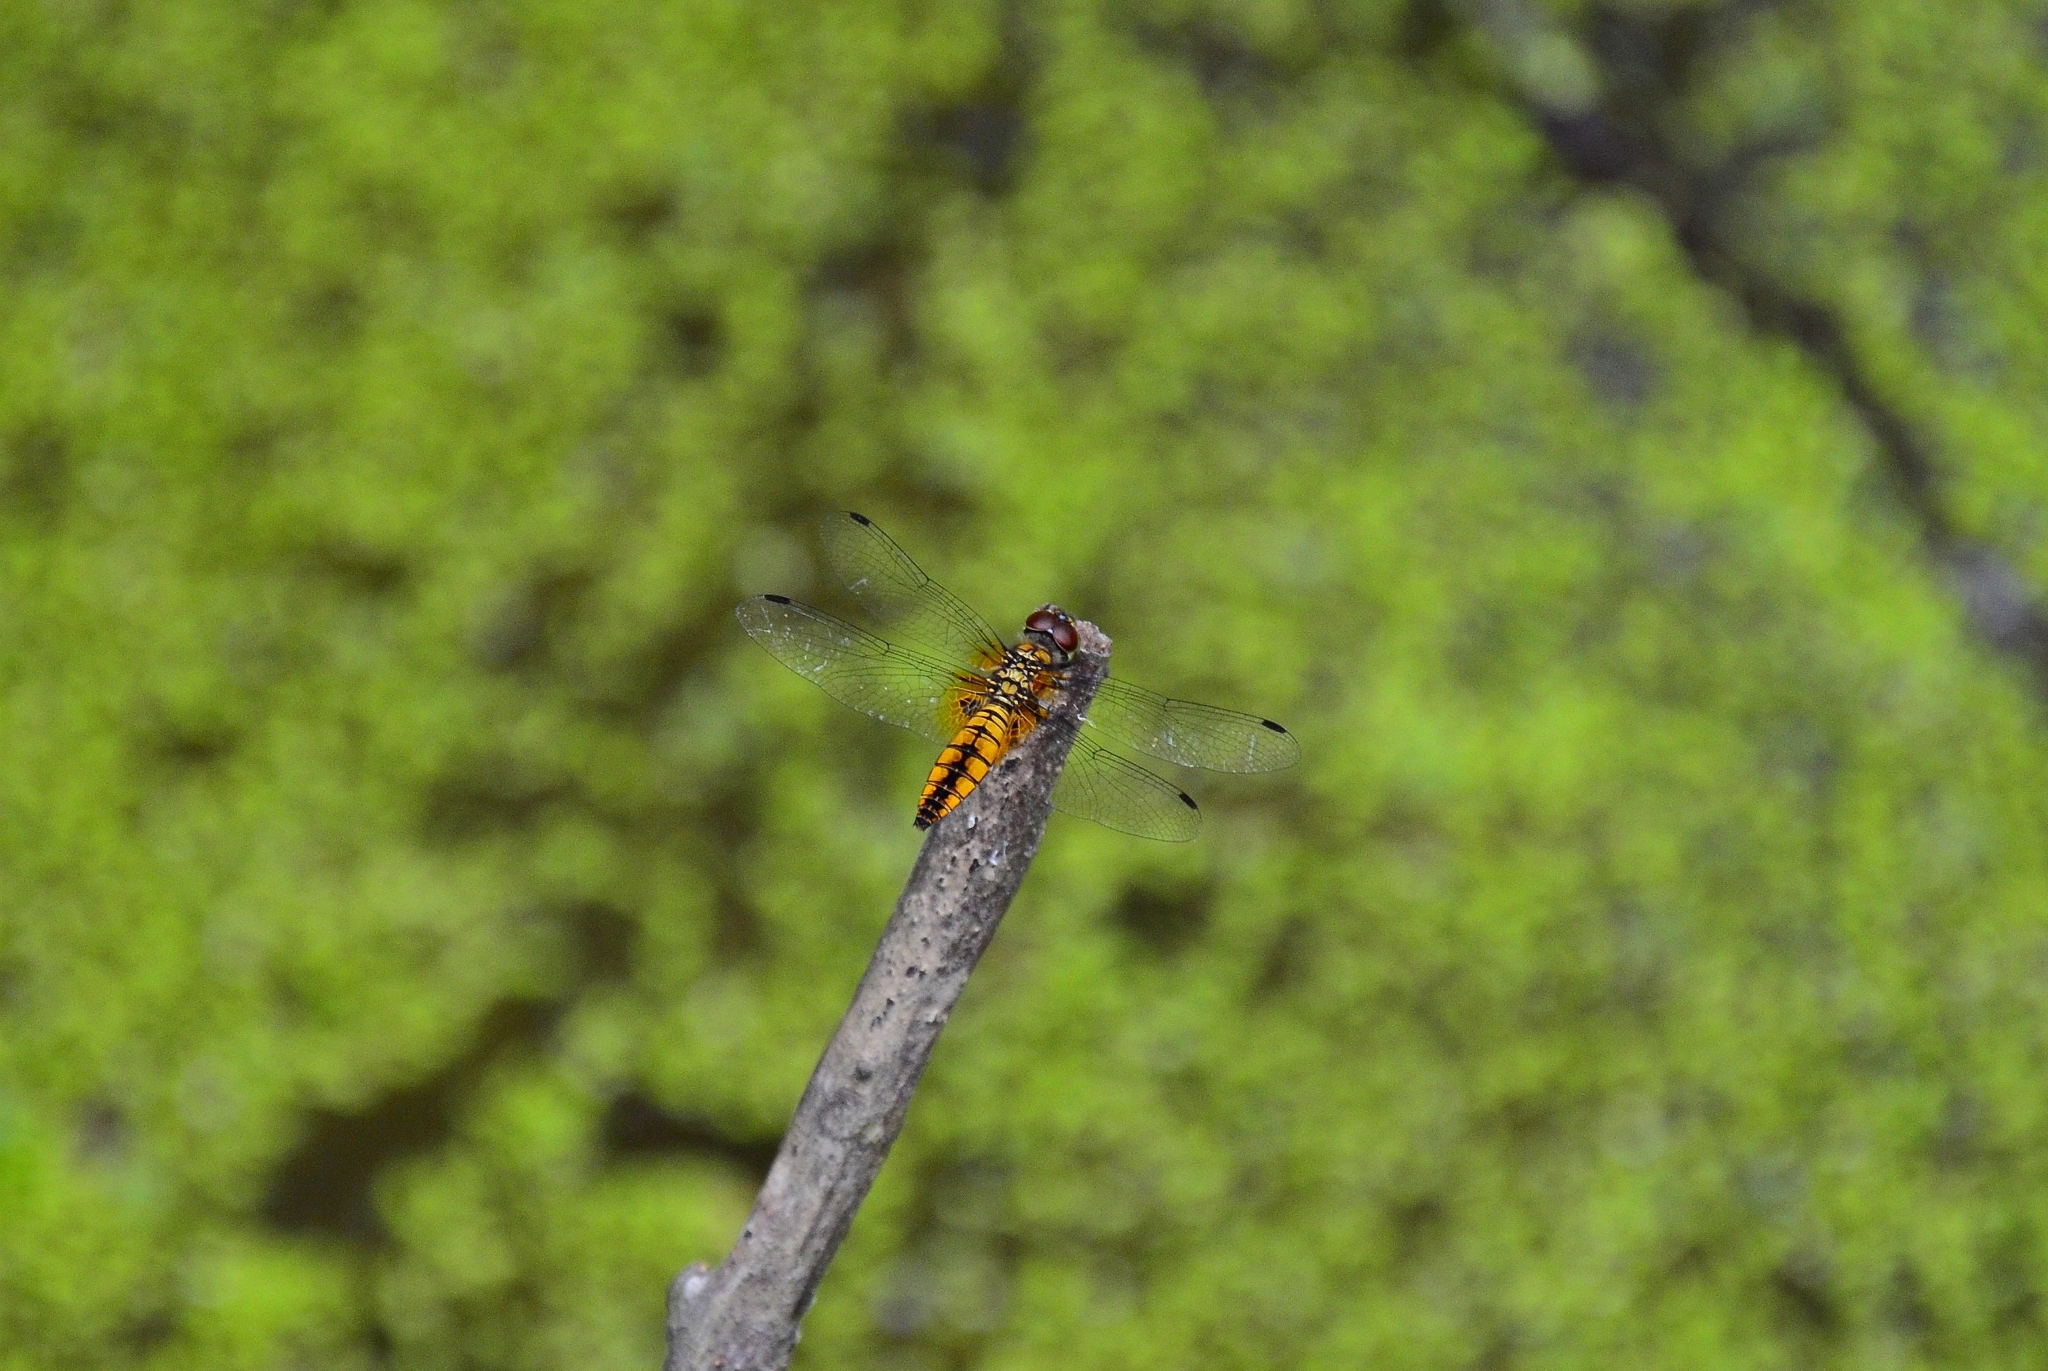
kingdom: Animalia
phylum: Arthropoda
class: Insecta
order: Odonata
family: Libellulidae
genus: Aethriamanta
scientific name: Aethriamanta brevipennis
